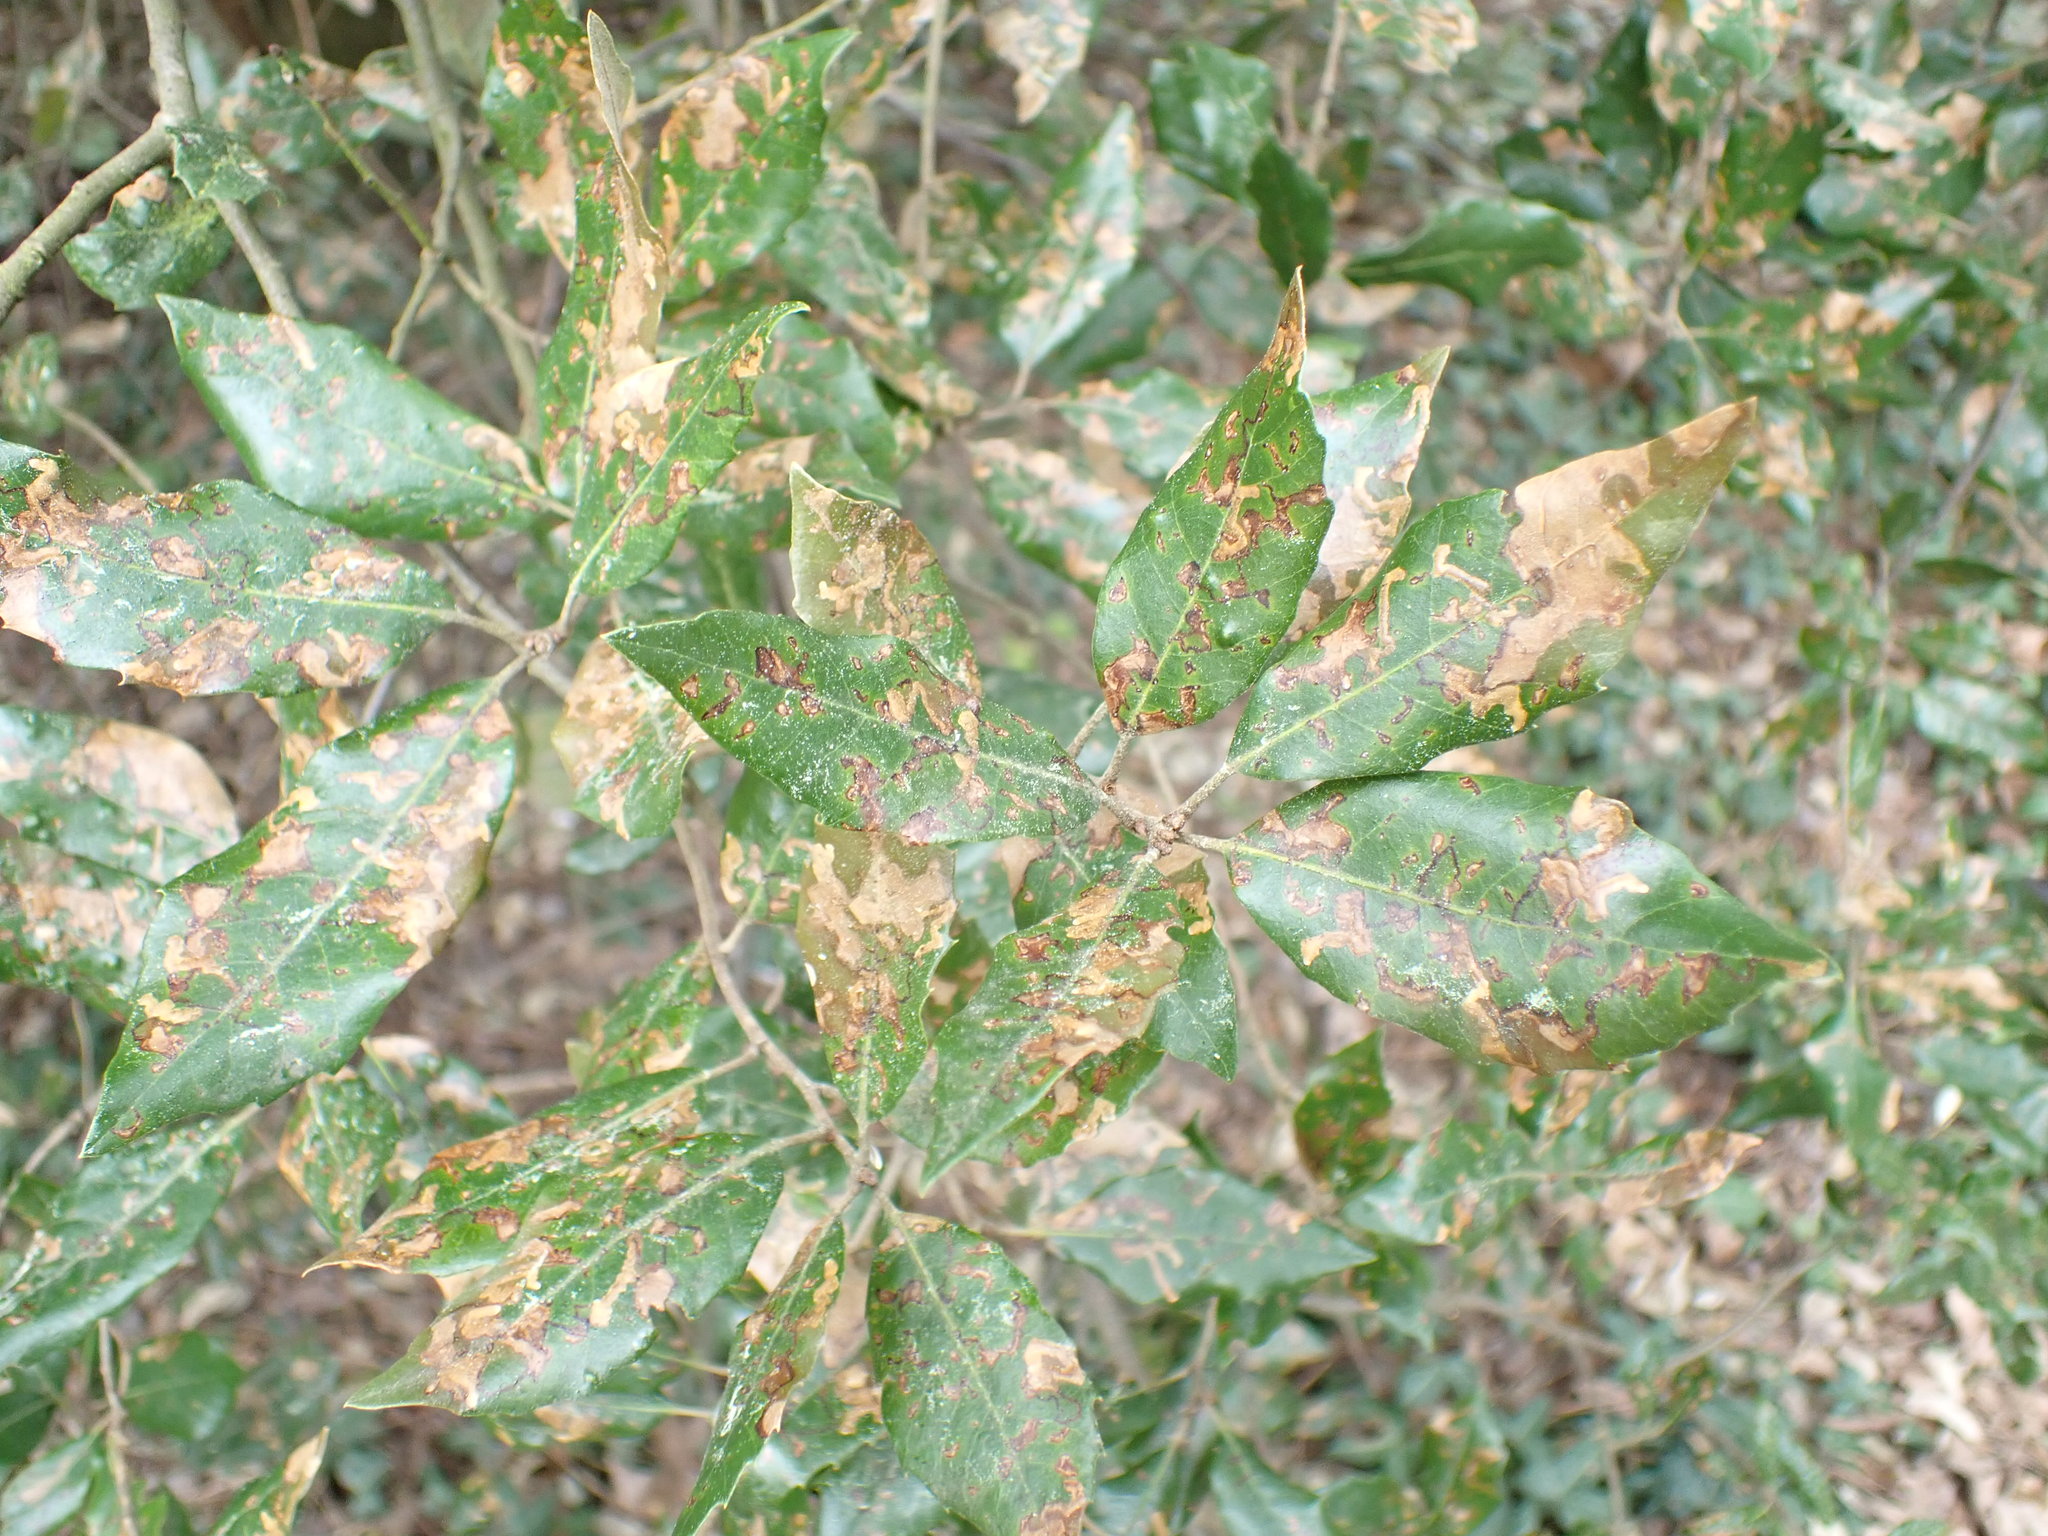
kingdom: Plantae
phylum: Tracheophyta
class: Magnoliopsida
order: Fagales
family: Fagaceae
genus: Quercus
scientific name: Quercus ilex
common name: Evergreen oak
